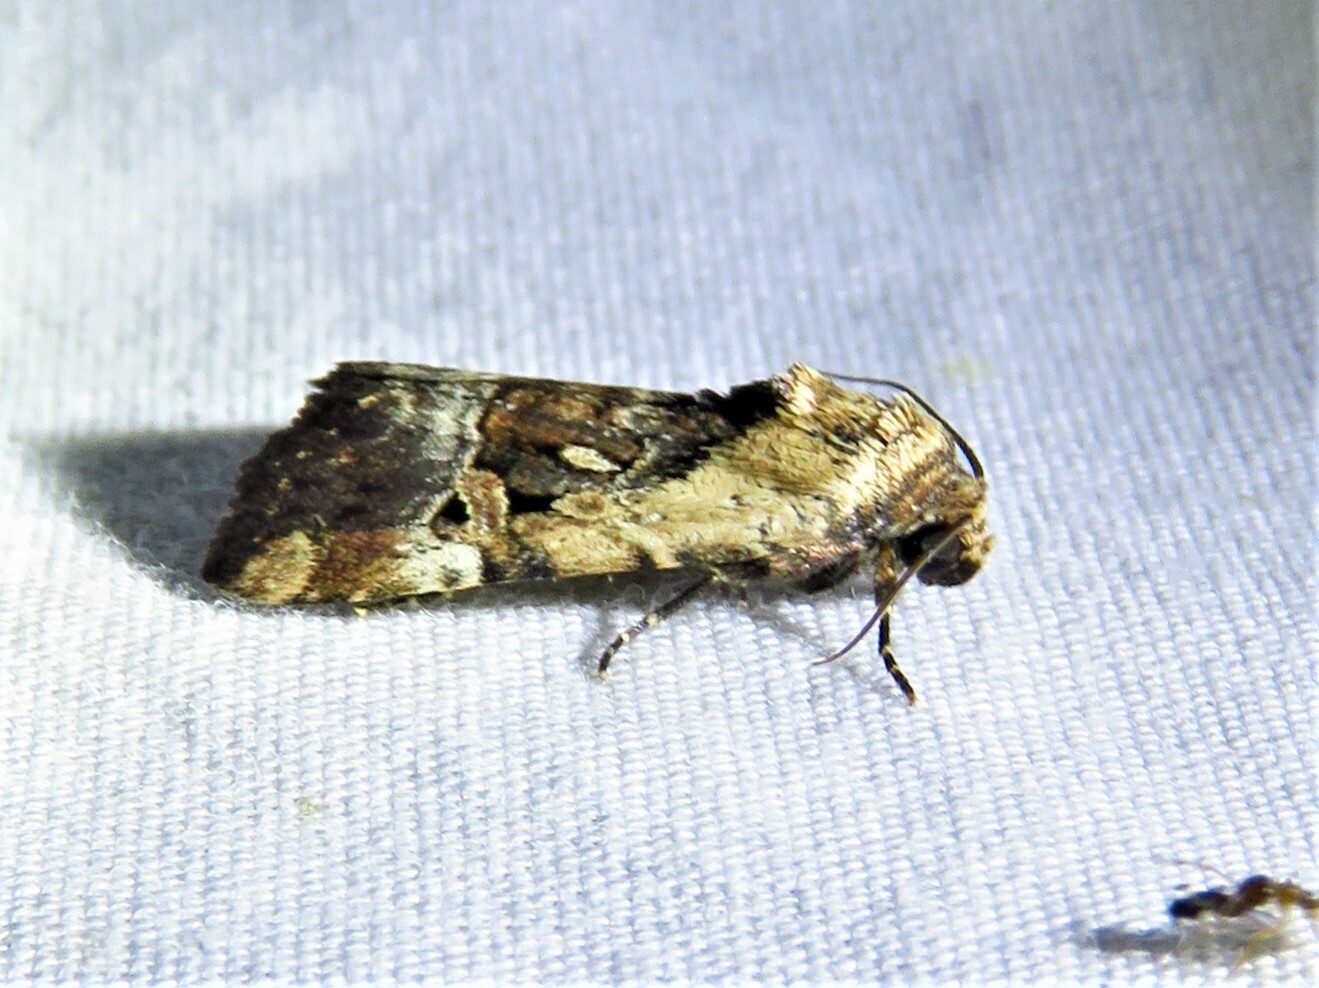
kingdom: Animalia
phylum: Arthropoda
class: Insecta
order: Lepidoptera
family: Noctuidae
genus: Elaphria
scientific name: Elaphria chalcedonia
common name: Chalcedony midget
